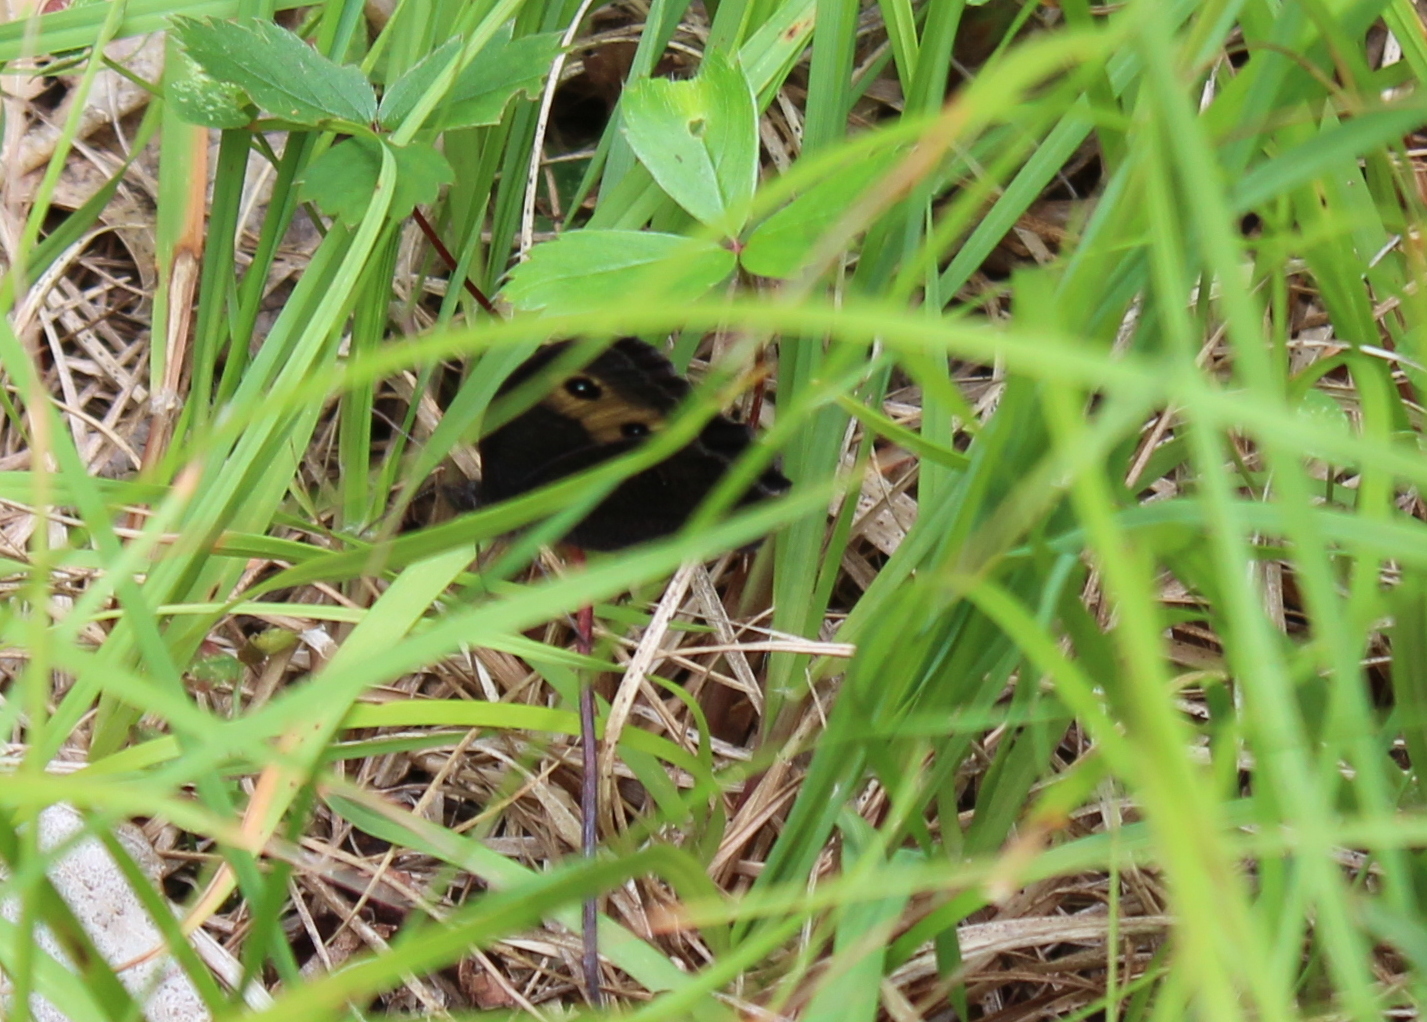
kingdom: Animalia
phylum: Arthropoda
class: Insecta
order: Lepidoptera
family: Nymphalidae
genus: Cercyonis
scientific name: Cercyonis pegala
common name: Common wood-nymph
